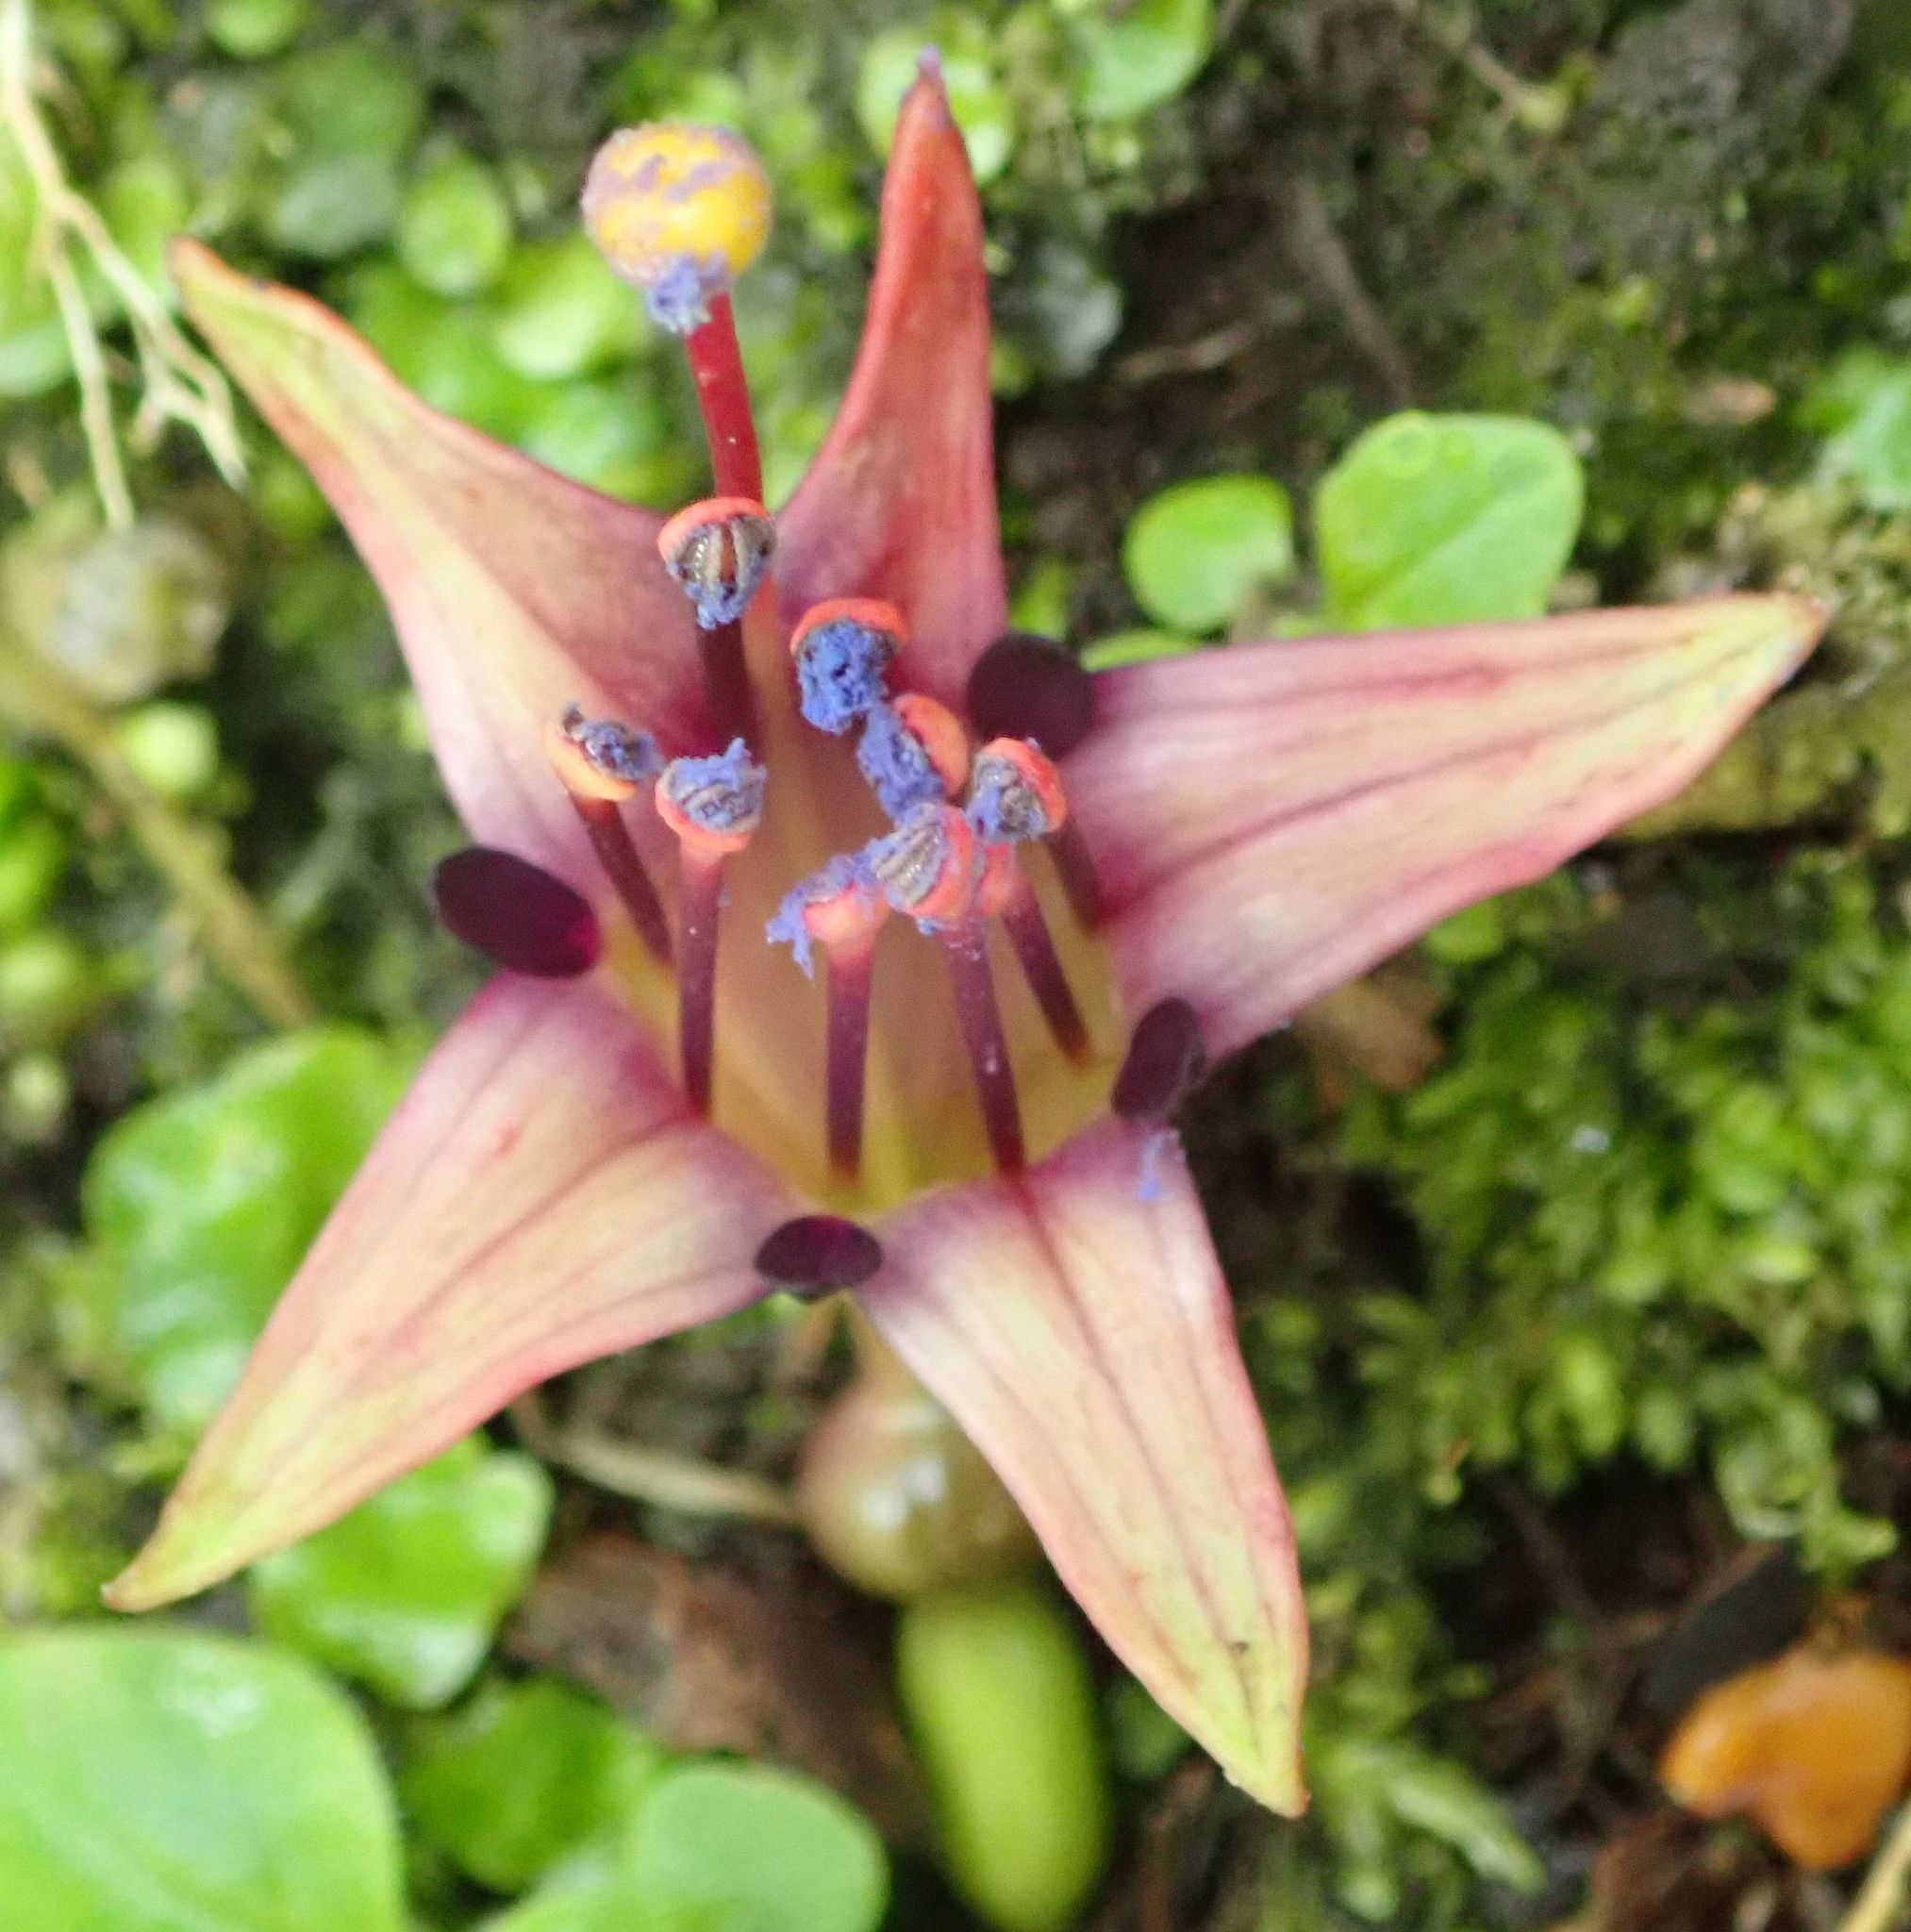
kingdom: Plantae
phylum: Tracheophyta
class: Magnoliopsida
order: Myrtales
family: Onagraceae
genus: Fuchsia
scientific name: Fuchsia excorticata
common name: Tree fuchsia
